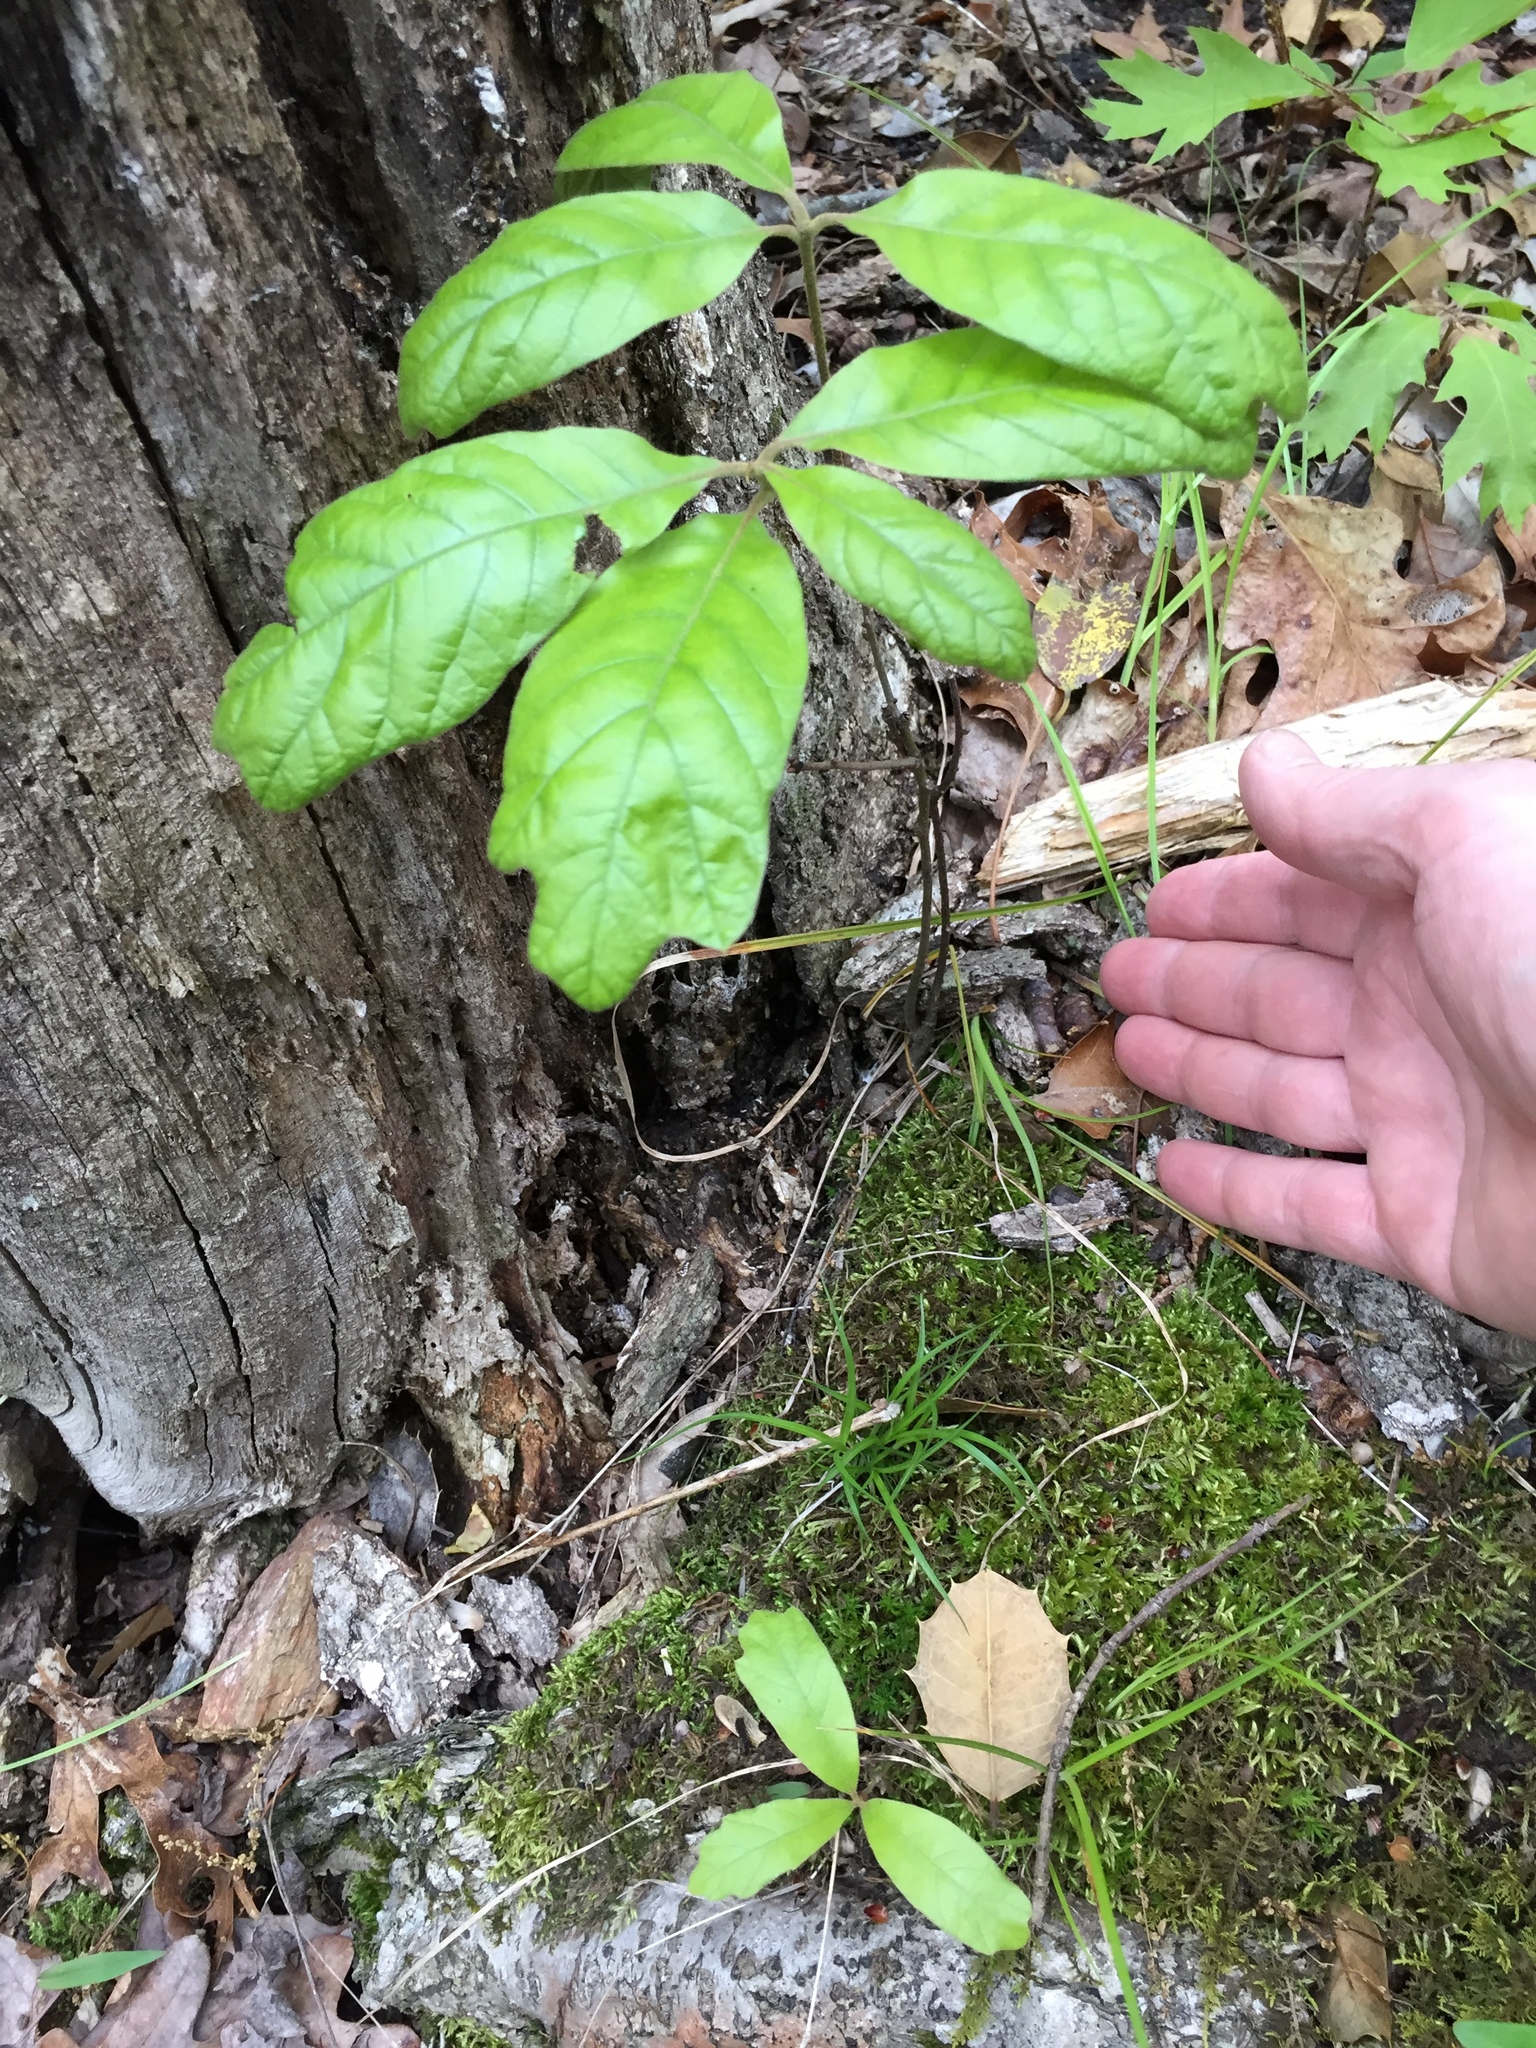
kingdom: Plantae
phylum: Tracheophyta
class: Magnoliopsida
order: Fagales
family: Fagaceae
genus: Quercus
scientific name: Quercus falcata
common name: Southern red oak
